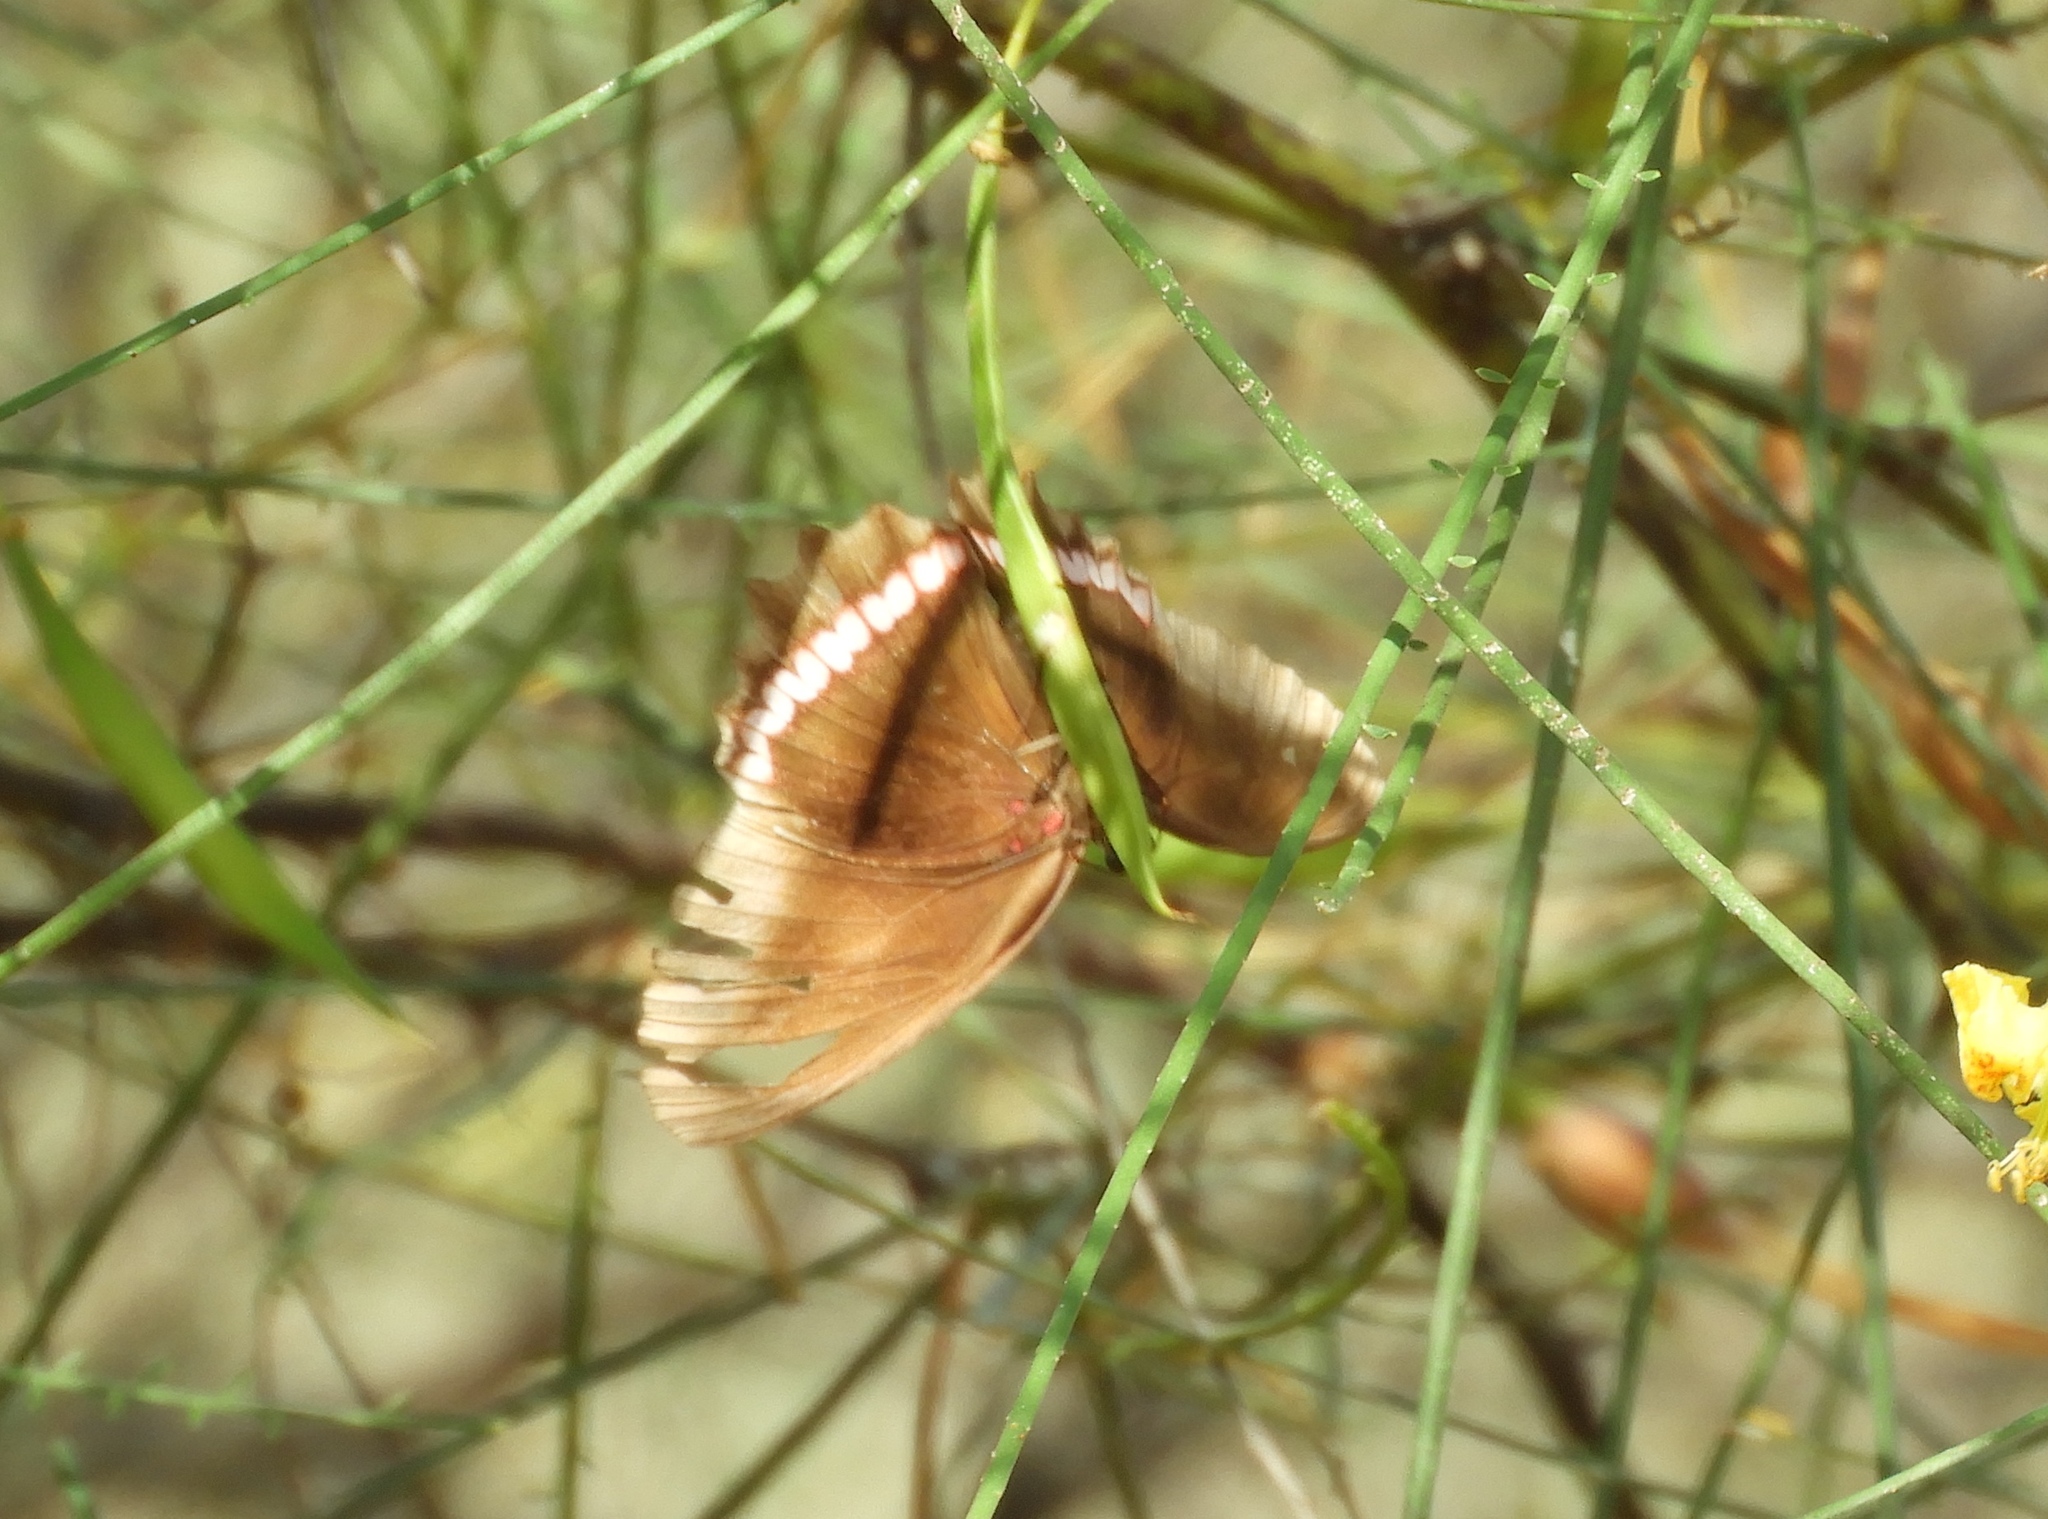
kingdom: Animalia
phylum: Arthropoda
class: Insecta
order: Lepidoptera
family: Nymphalidae
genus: Biblis
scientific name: Biblis aganisa
